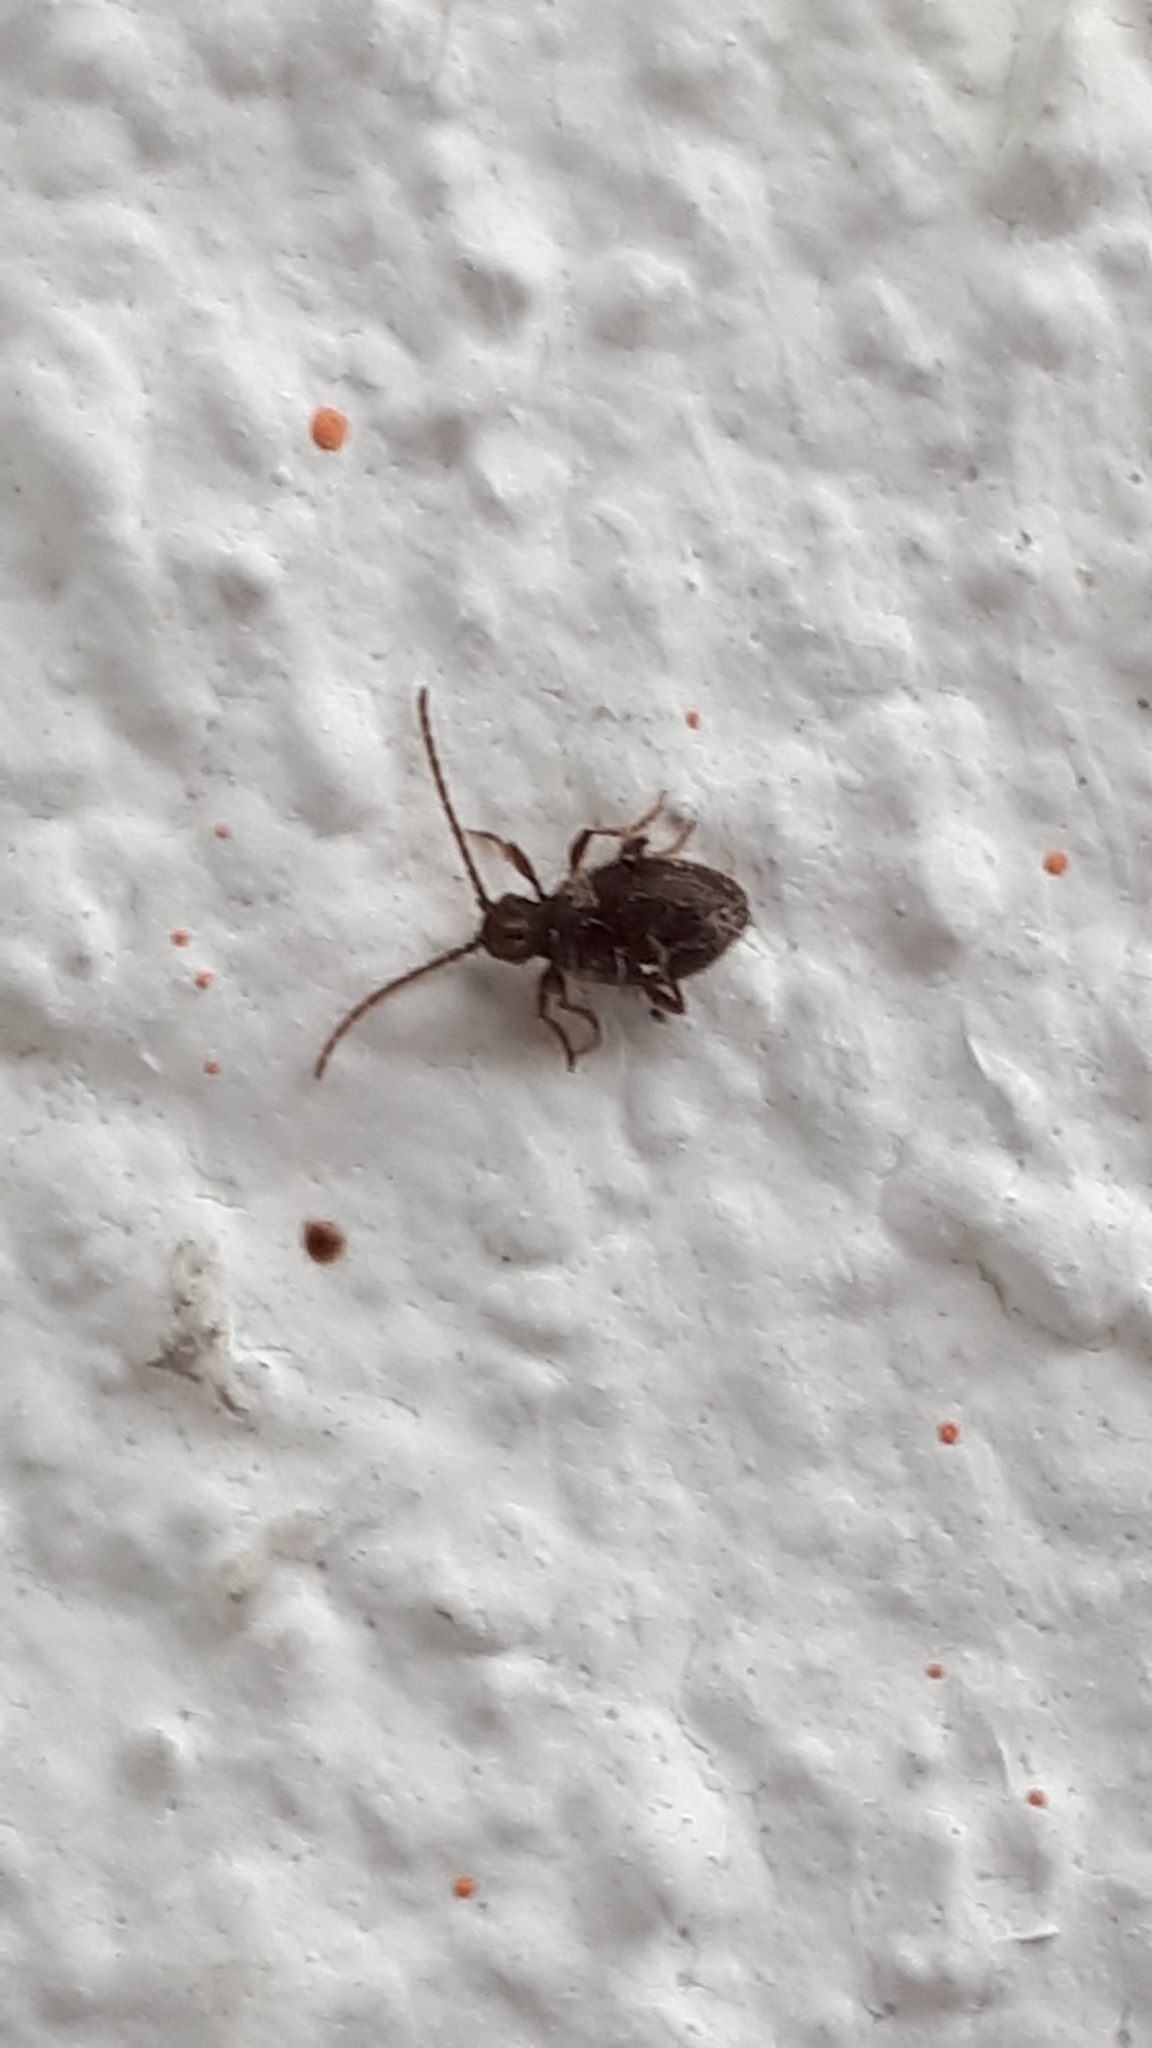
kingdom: Animalia
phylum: Arthropoda
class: Insecta
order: Coleoptera
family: Ptinidae
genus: Ptinus
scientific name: Ptinus fur
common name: White-marked spider beetle
